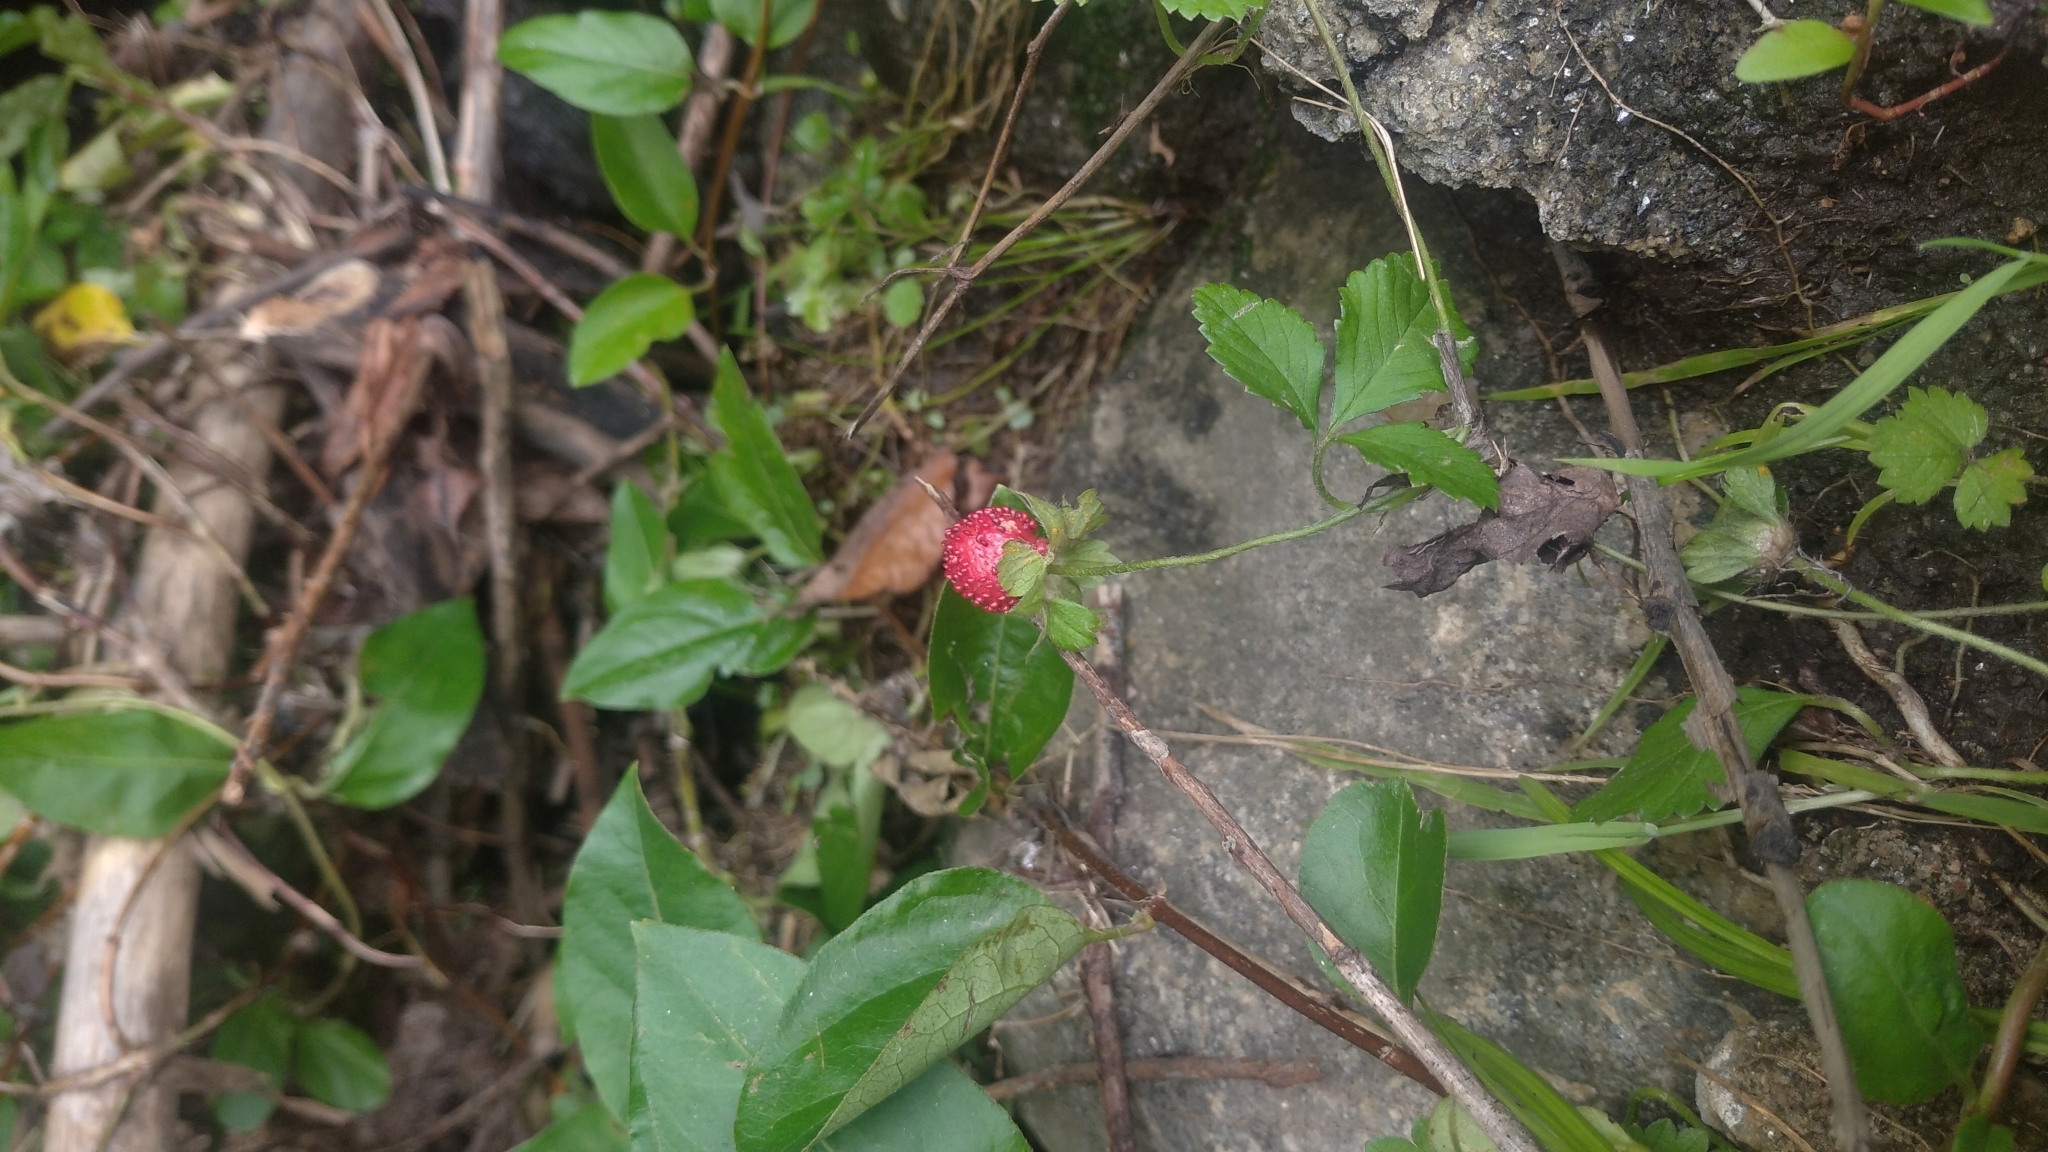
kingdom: Plantae
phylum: Tracheophyta
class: Magnoliopsida
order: Rosales
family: Rosaceae
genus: Potentilla
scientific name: Potentilla indica
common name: Yellow-flowered strawberry
